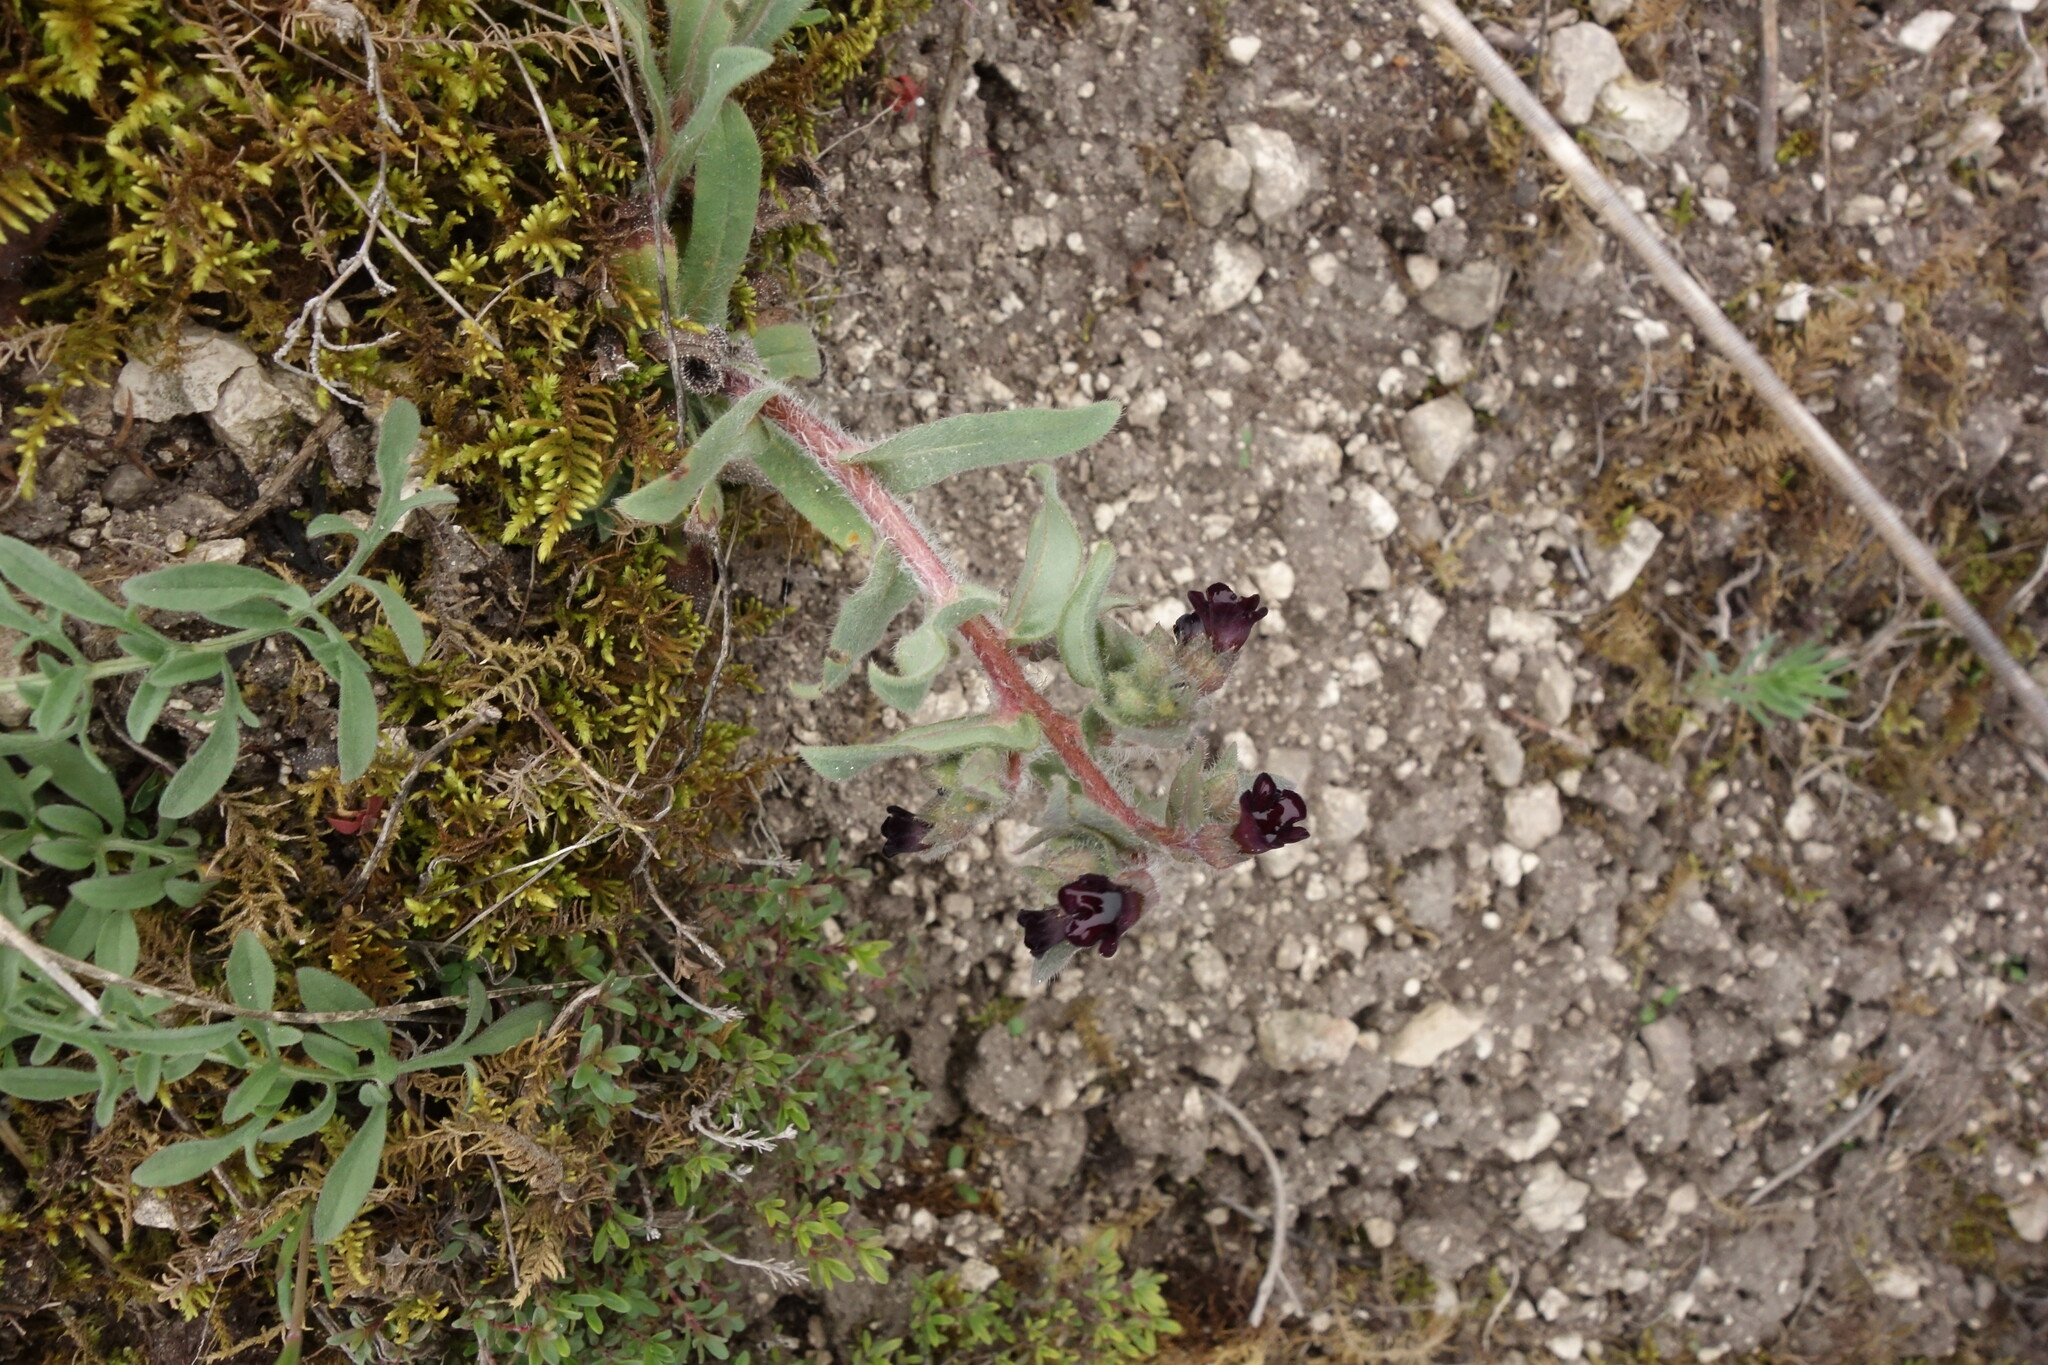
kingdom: Plantae
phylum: Tracheophyta
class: Magnoliopsida
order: Boraginales
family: Boraginaceae
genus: Nonea
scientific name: Nonea pulla
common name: Brown nonea
